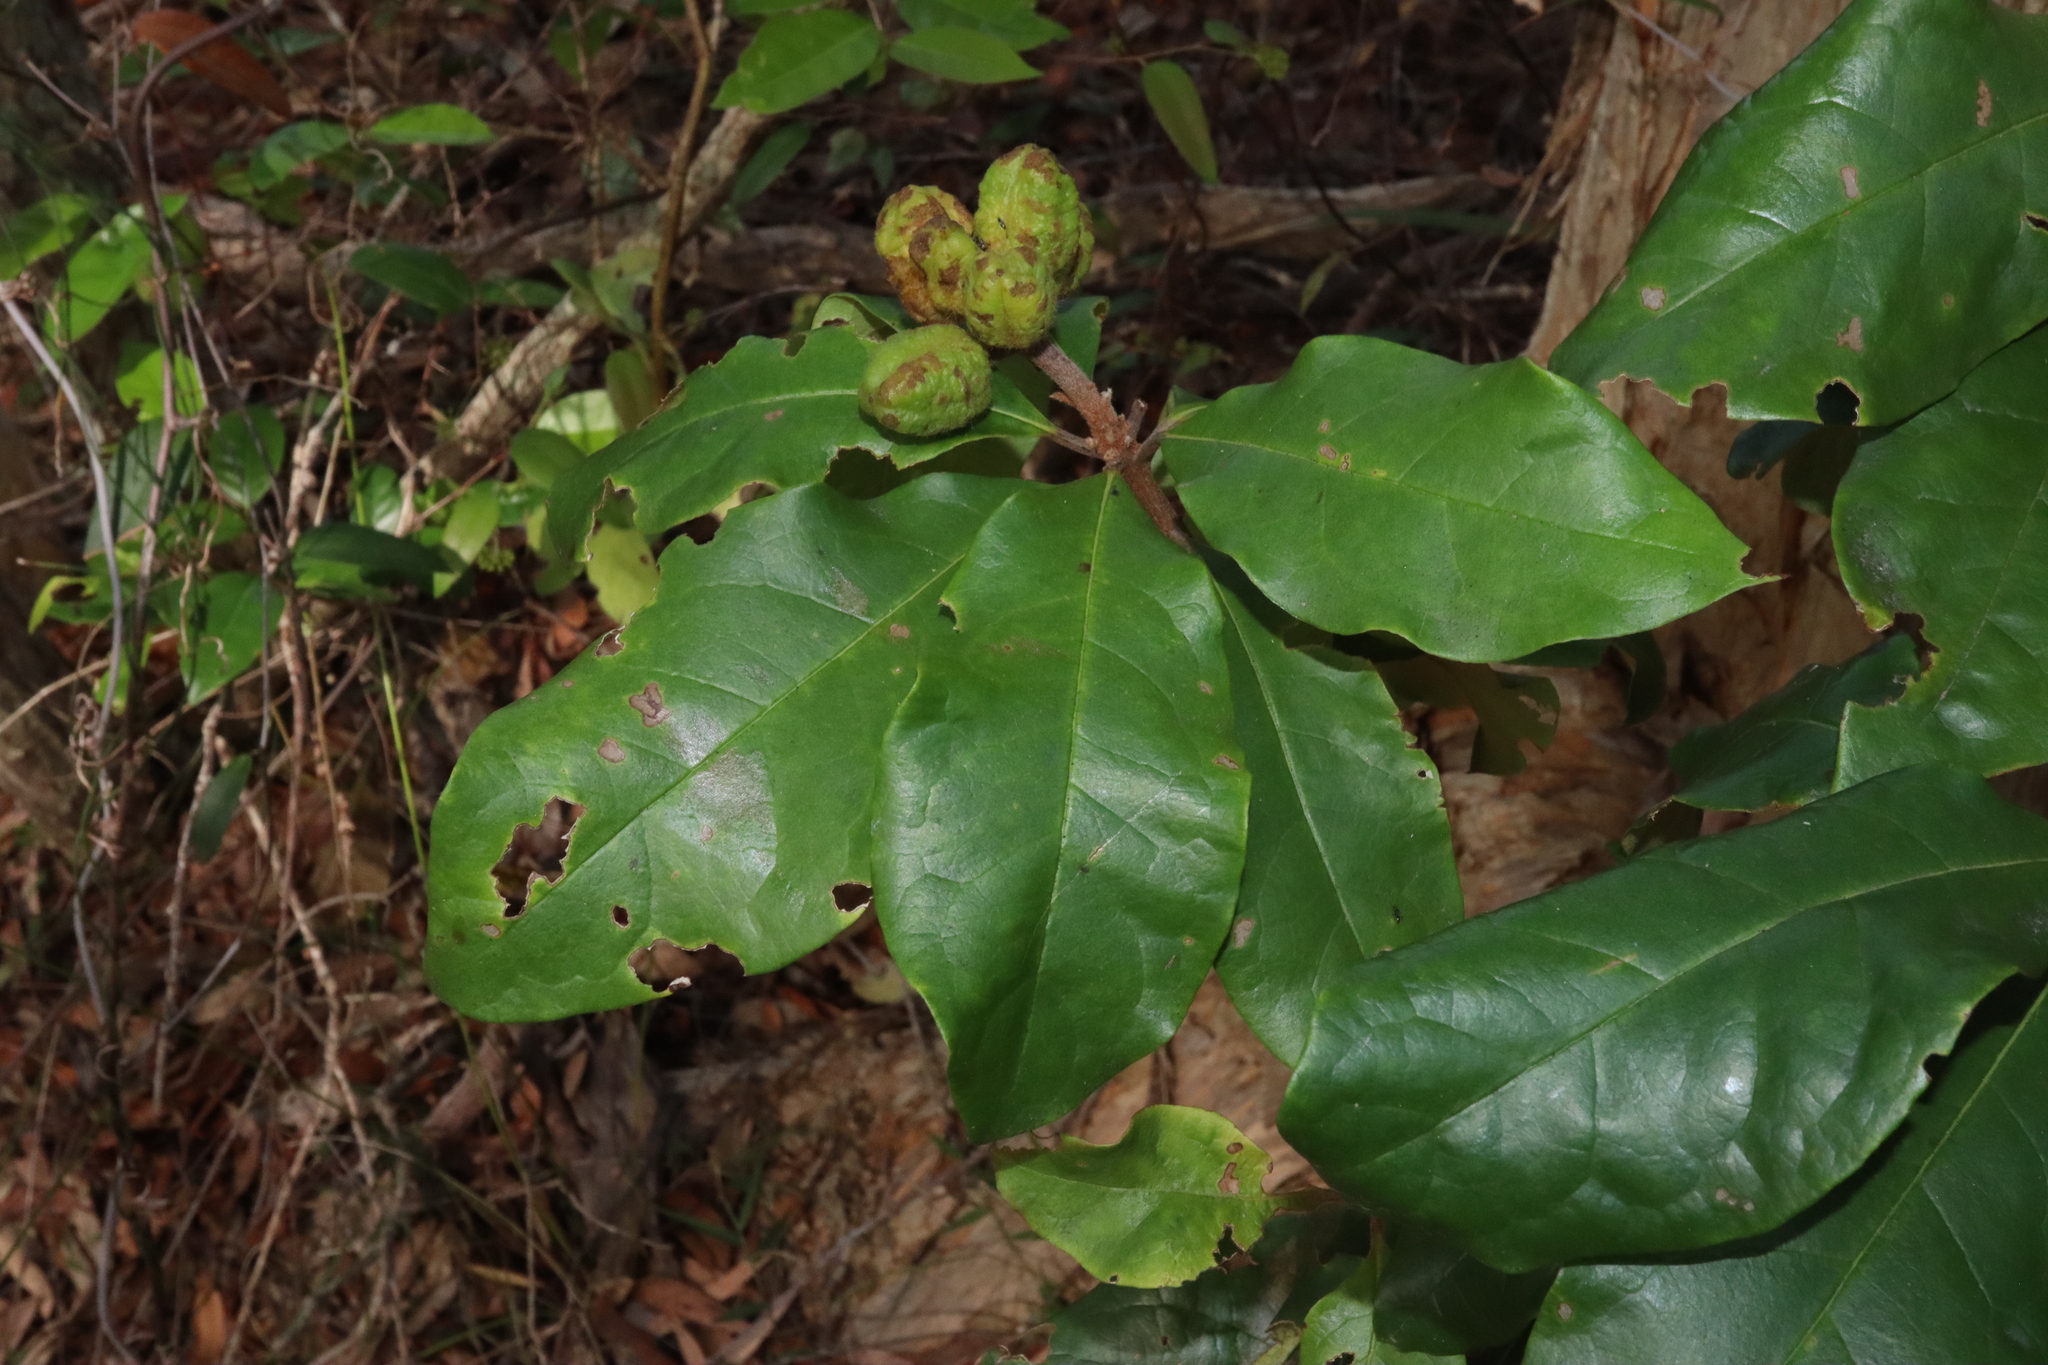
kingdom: Plantae
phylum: Tracheophyta
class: Magnoliopsida
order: Apiales
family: Pittosporaceae
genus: Pittosporum
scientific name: Pittosporum revolutum
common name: Brisbane-laurel
